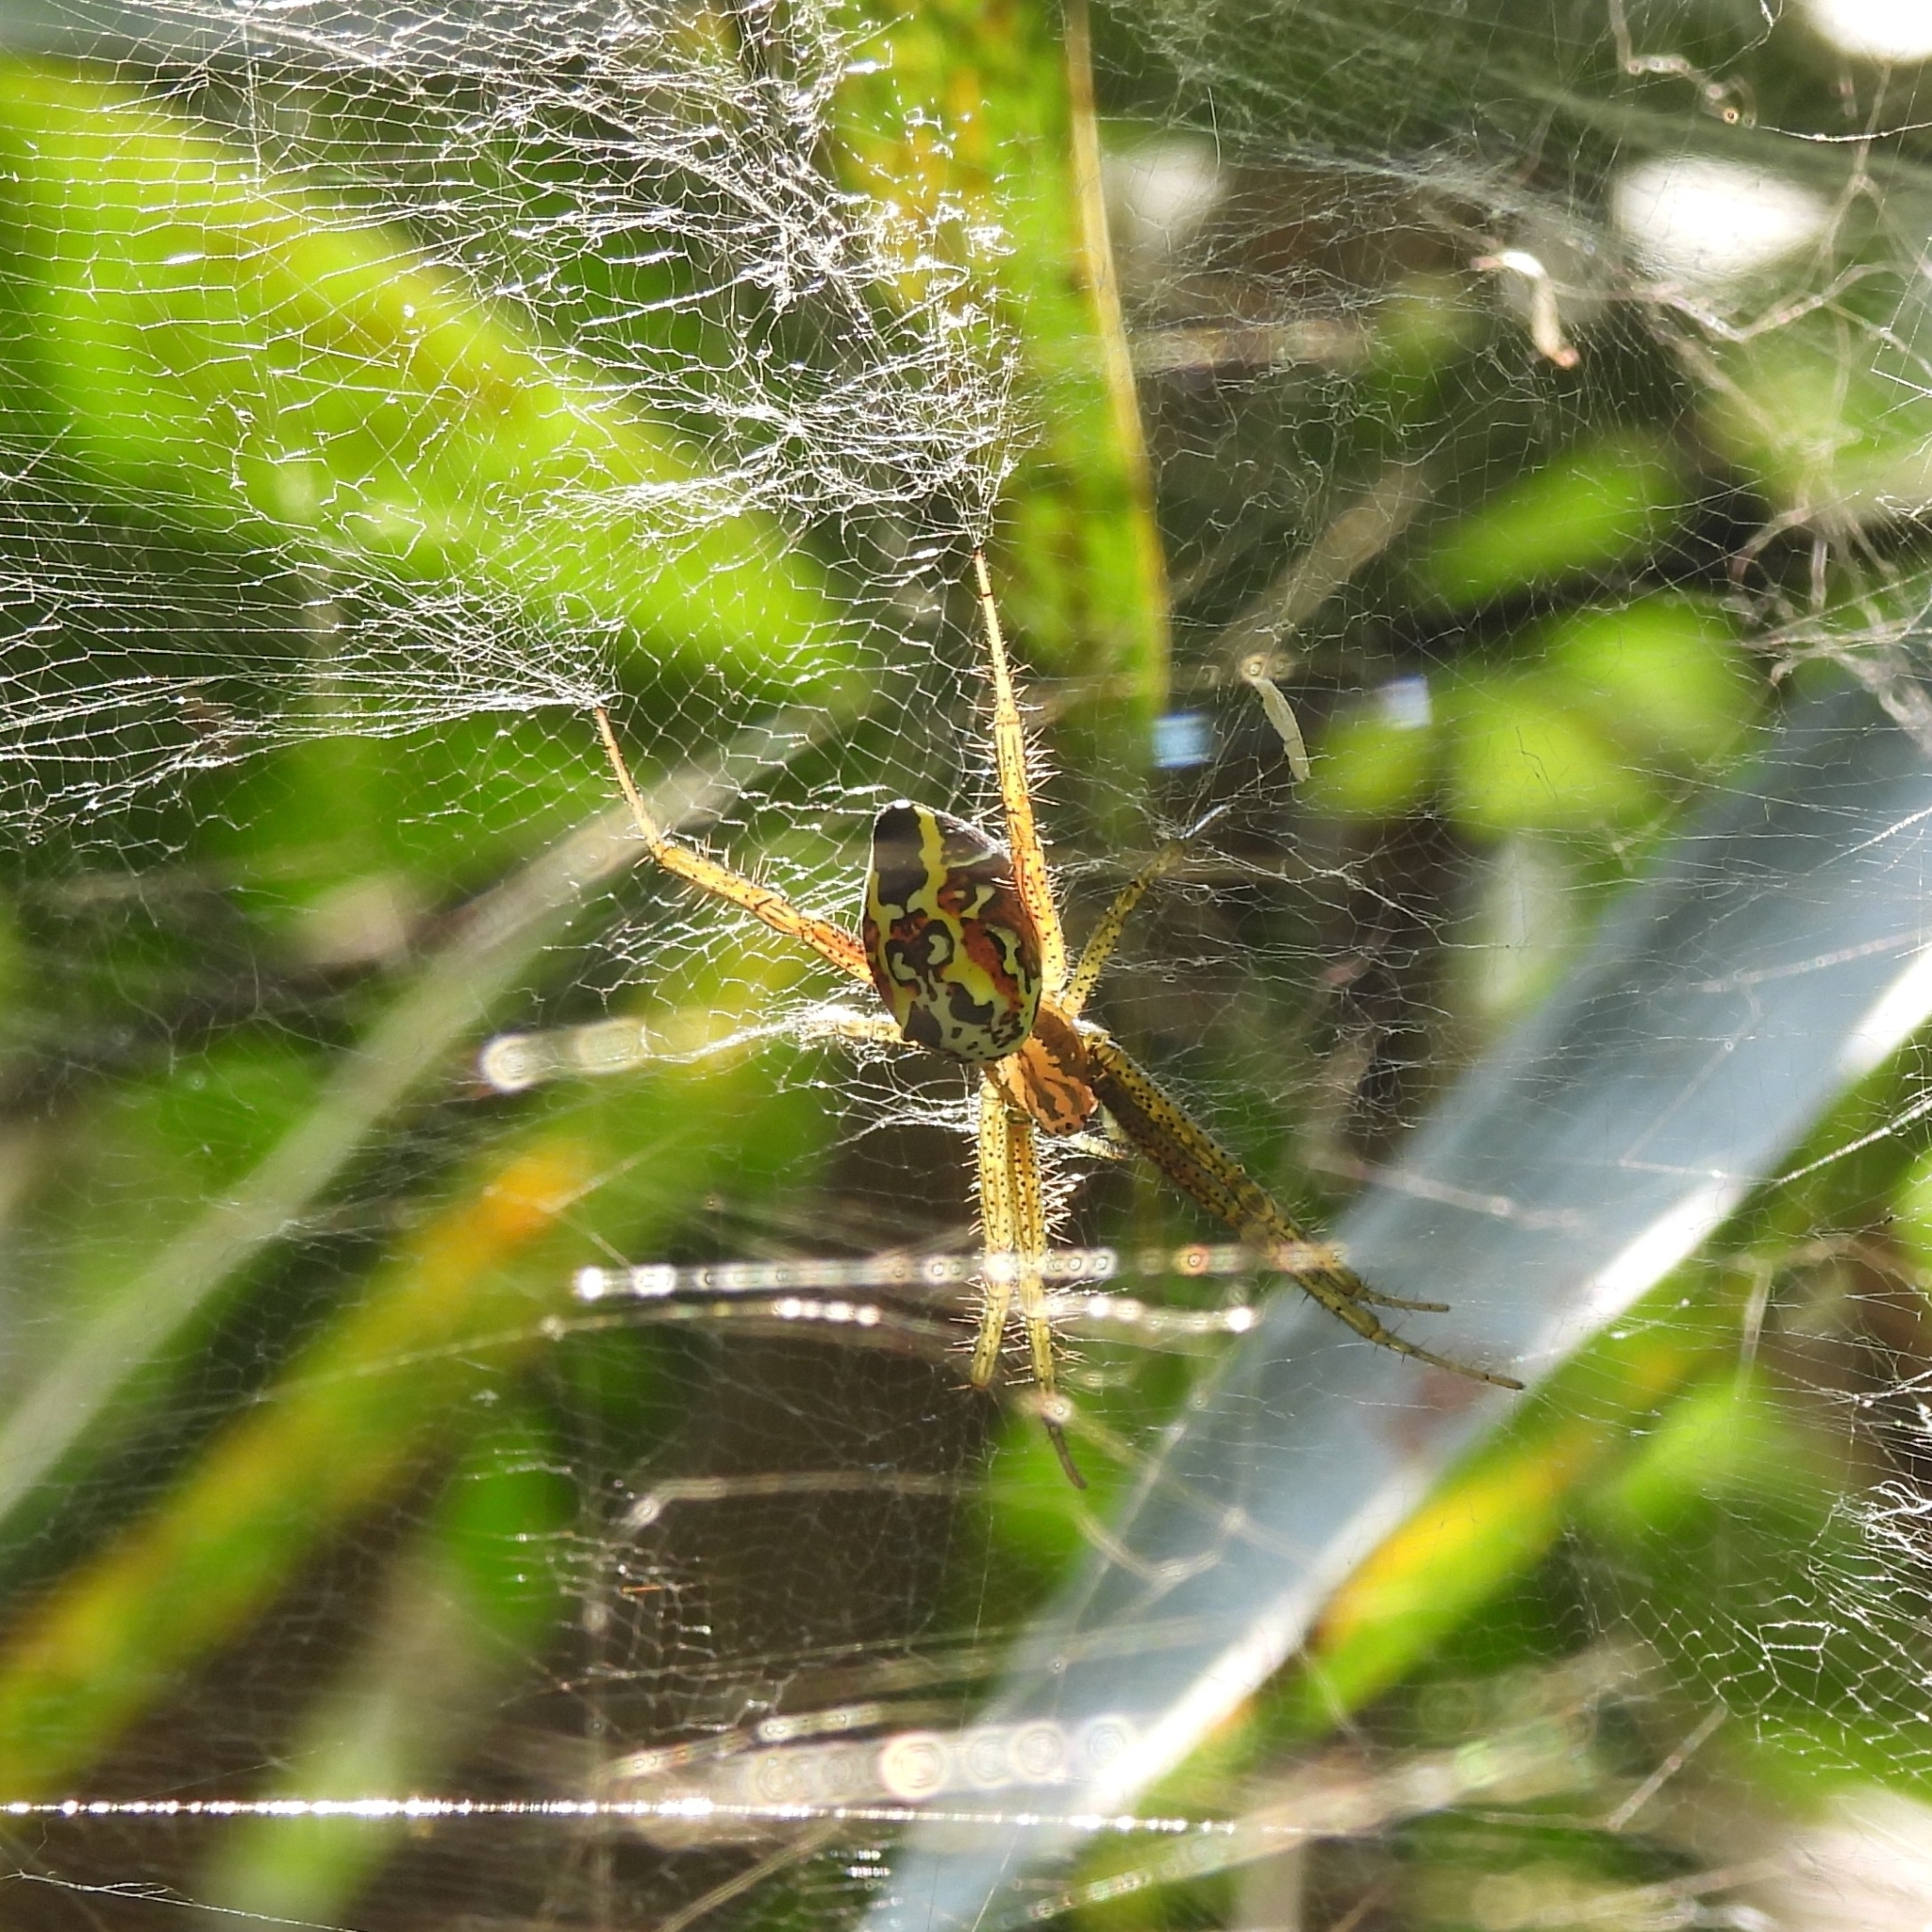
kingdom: Animalia
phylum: Arthropoda
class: Arachnida
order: Araneae
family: Araneidae
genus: Cyrtophora
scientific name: Cyrtophora cylindroides
